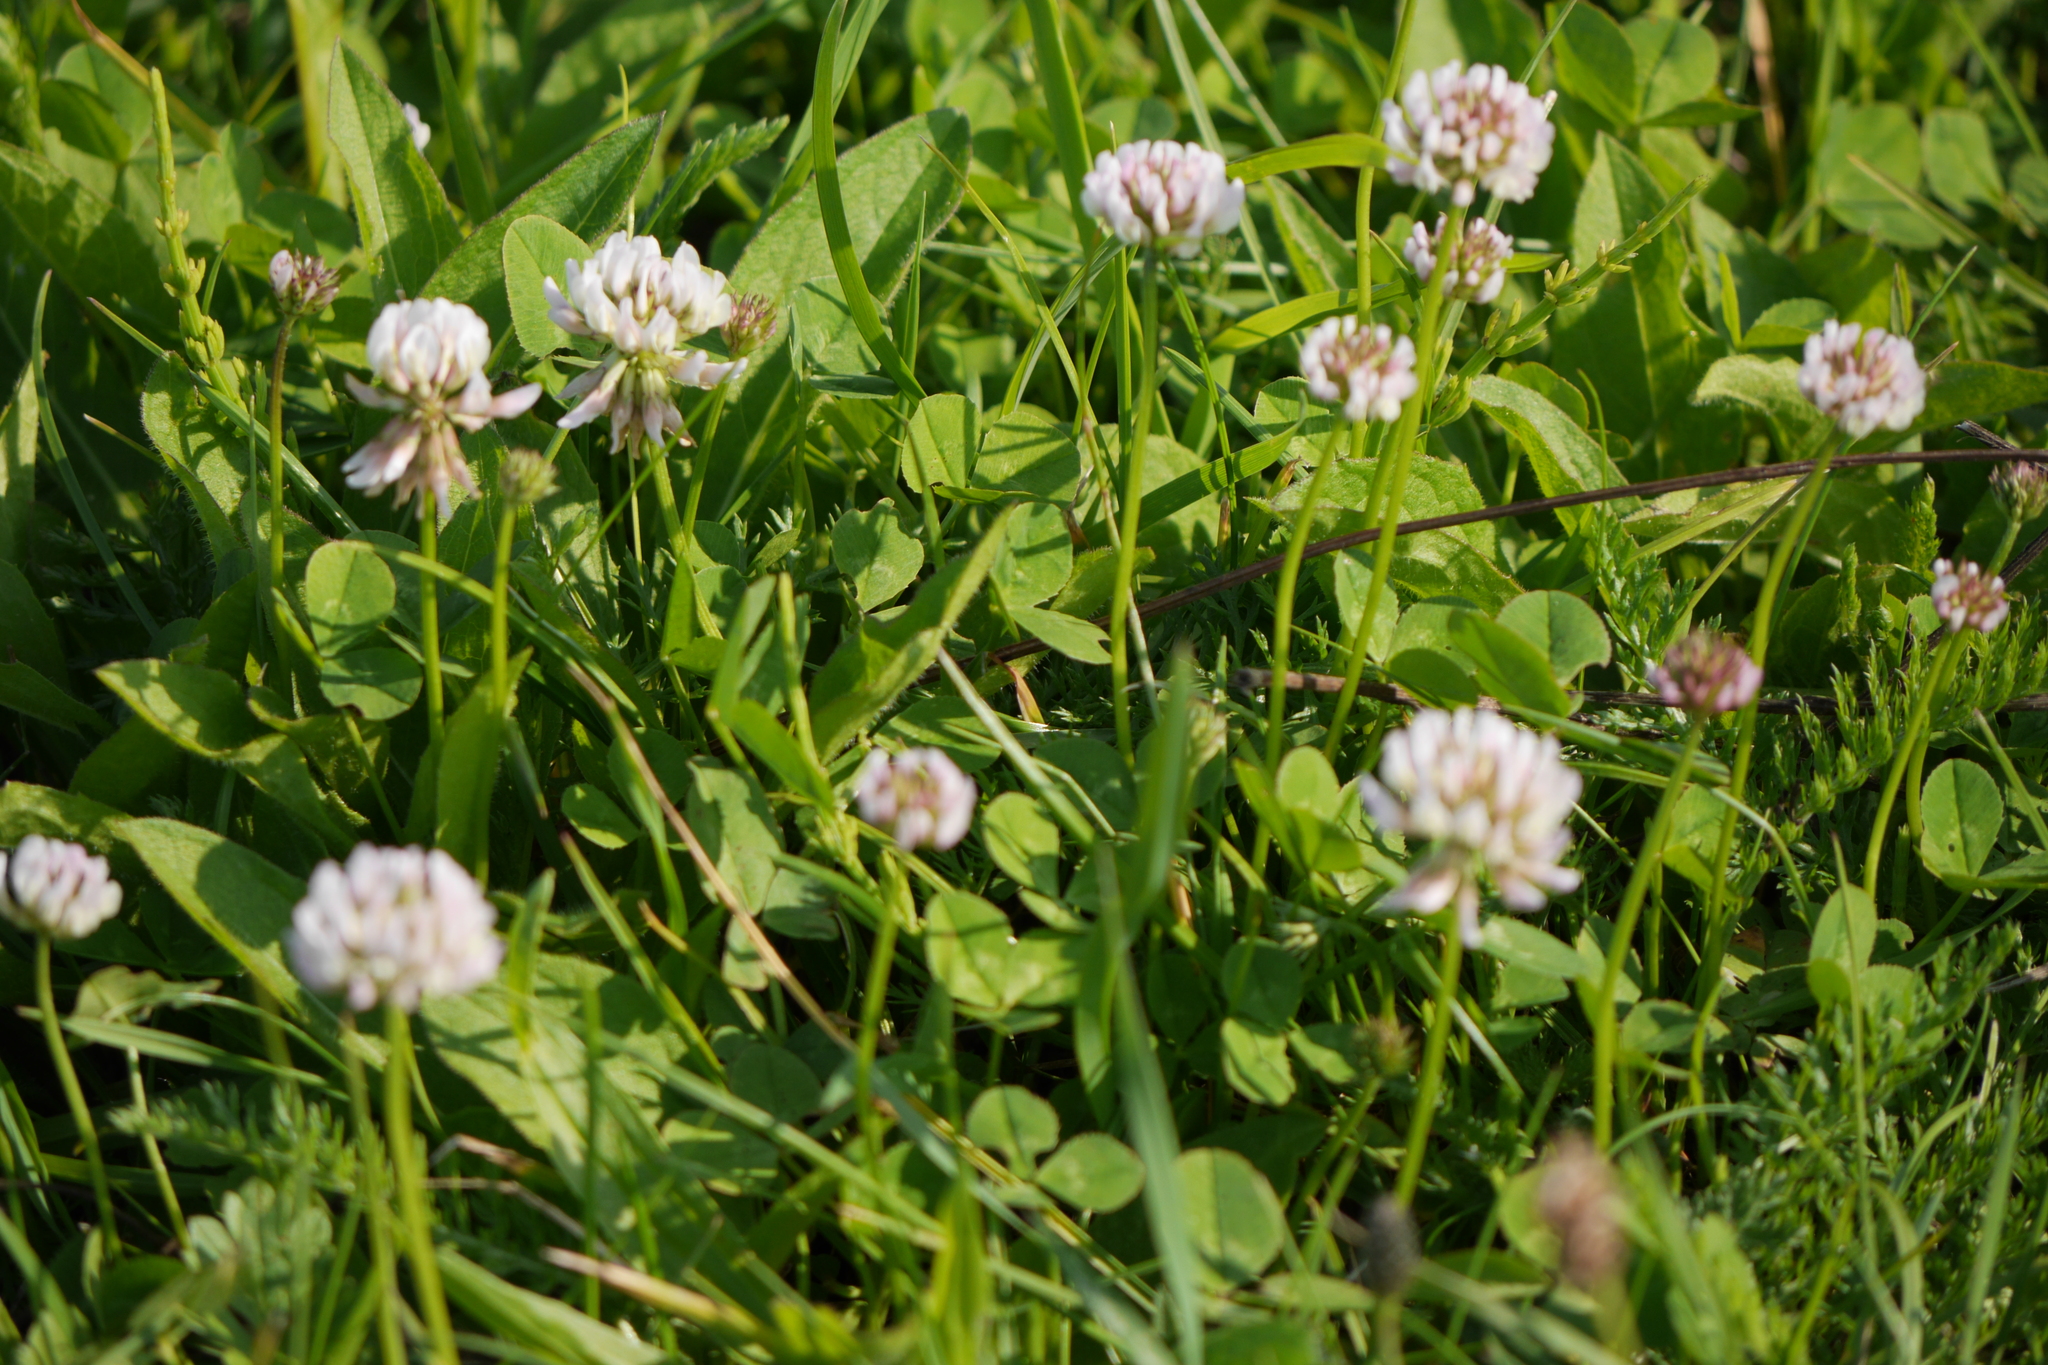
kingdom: Plantae
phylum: Tracheophyta
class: Magnoliopsida
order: Fabales
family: Fabaceae
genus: Trifolium
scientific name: Trifolium repens
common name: White clover
